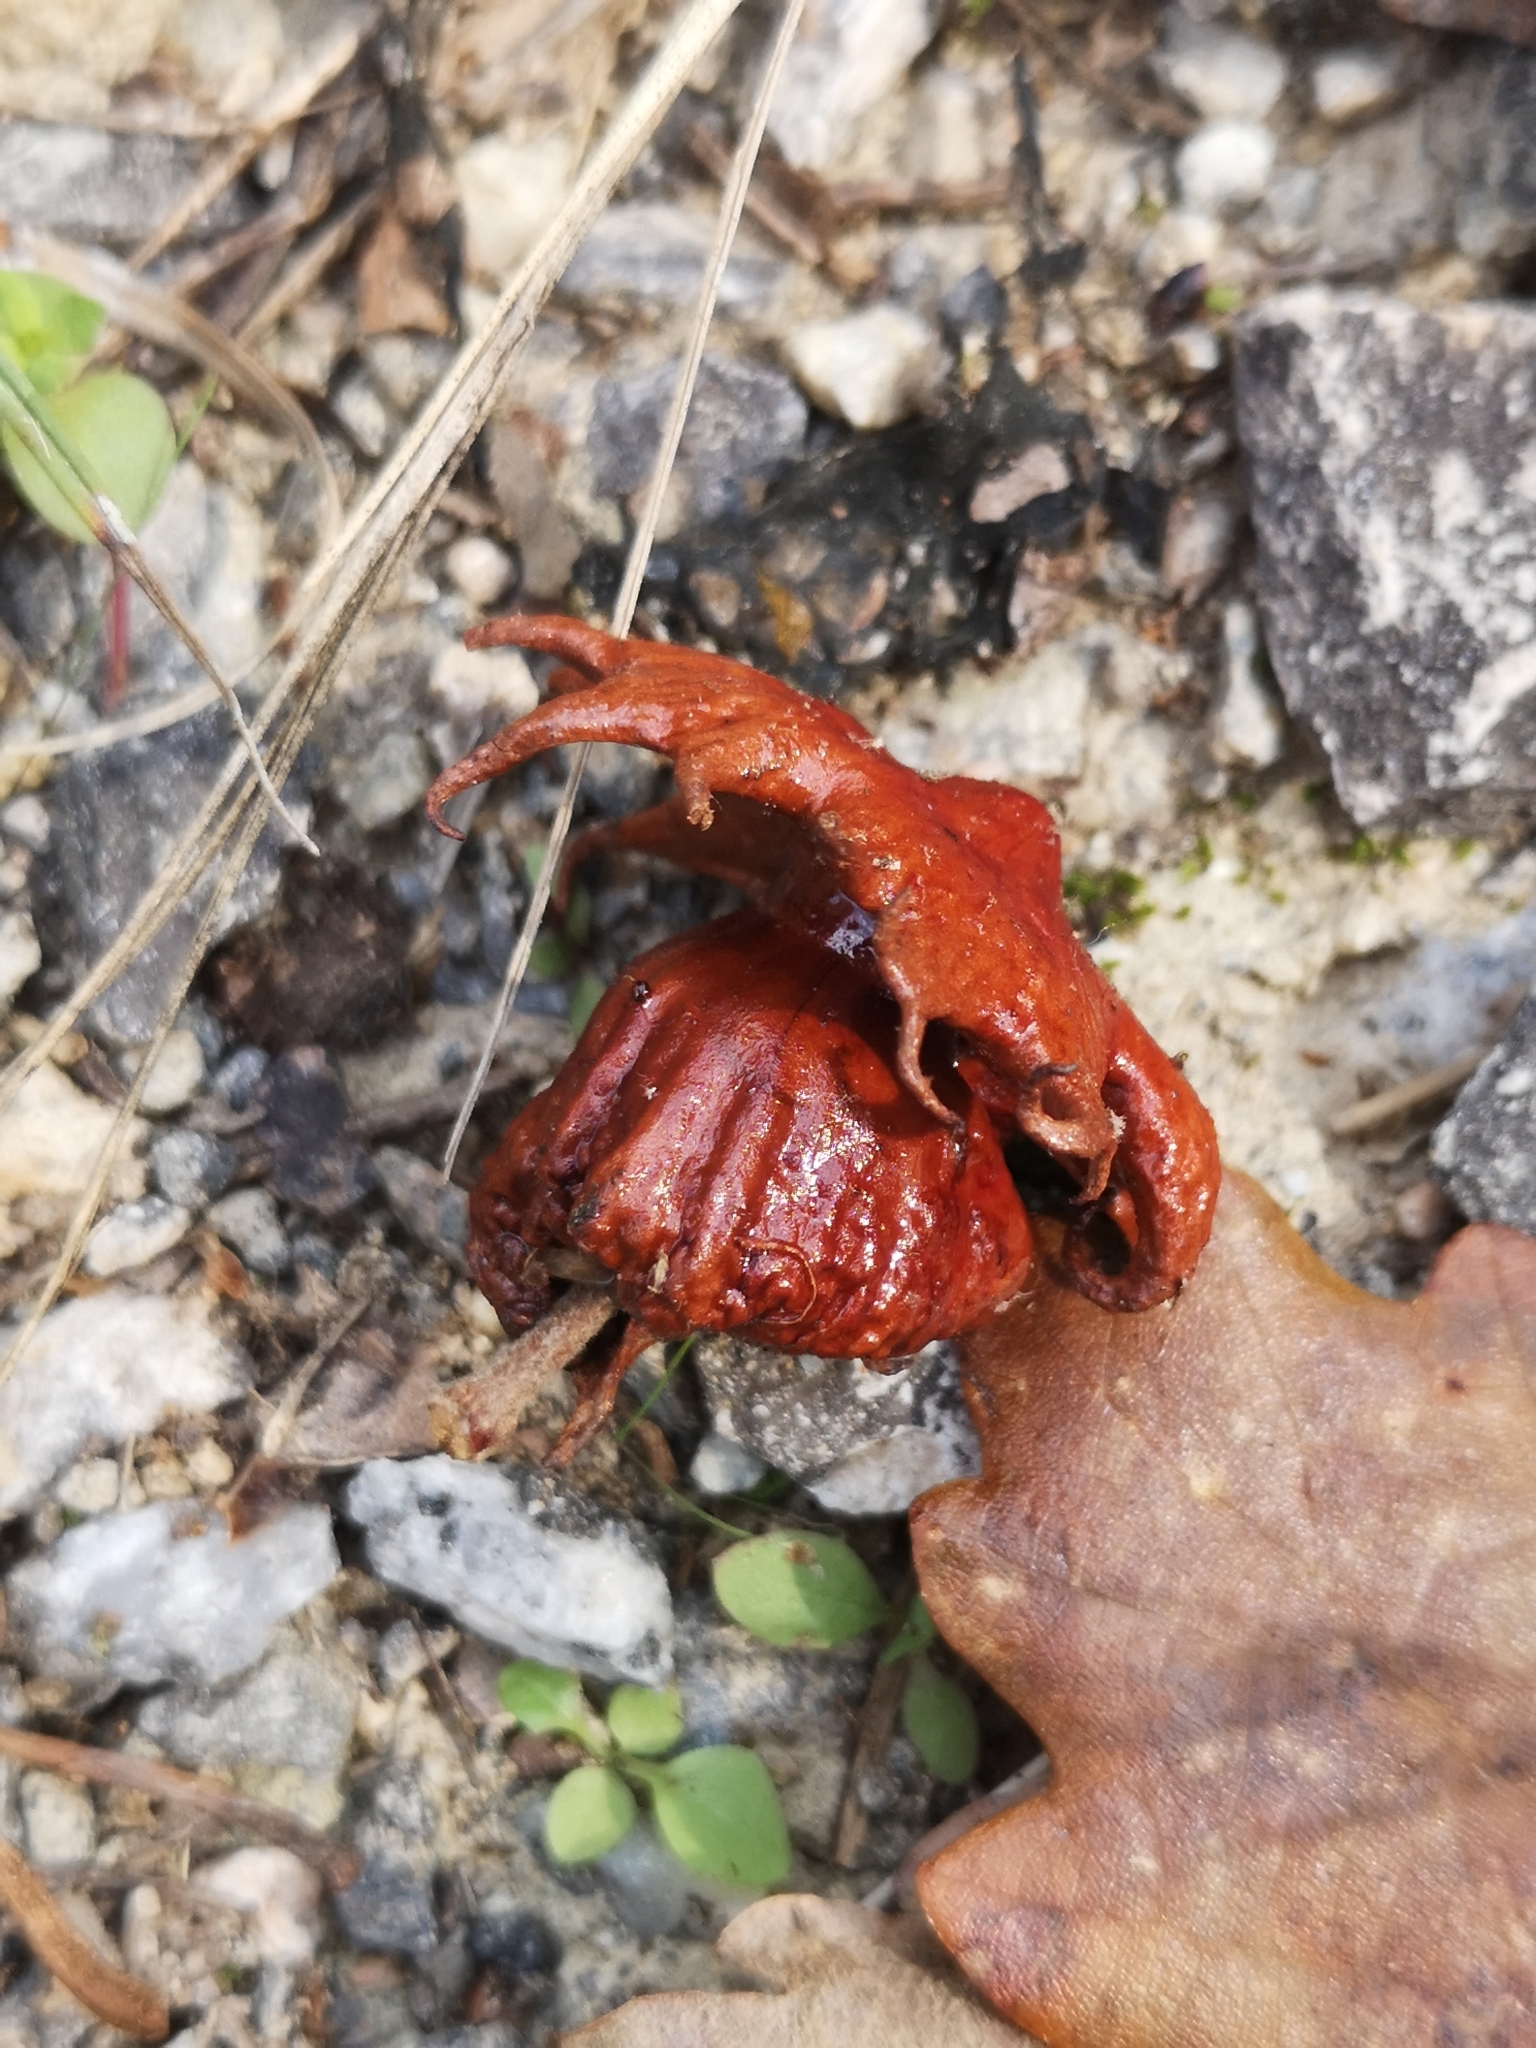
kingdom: Animalia
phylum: Arthropoda
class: Insecta
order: Hymenoptera
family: Cynipidae
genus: Andricus
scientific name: Andricus dentimitratus
